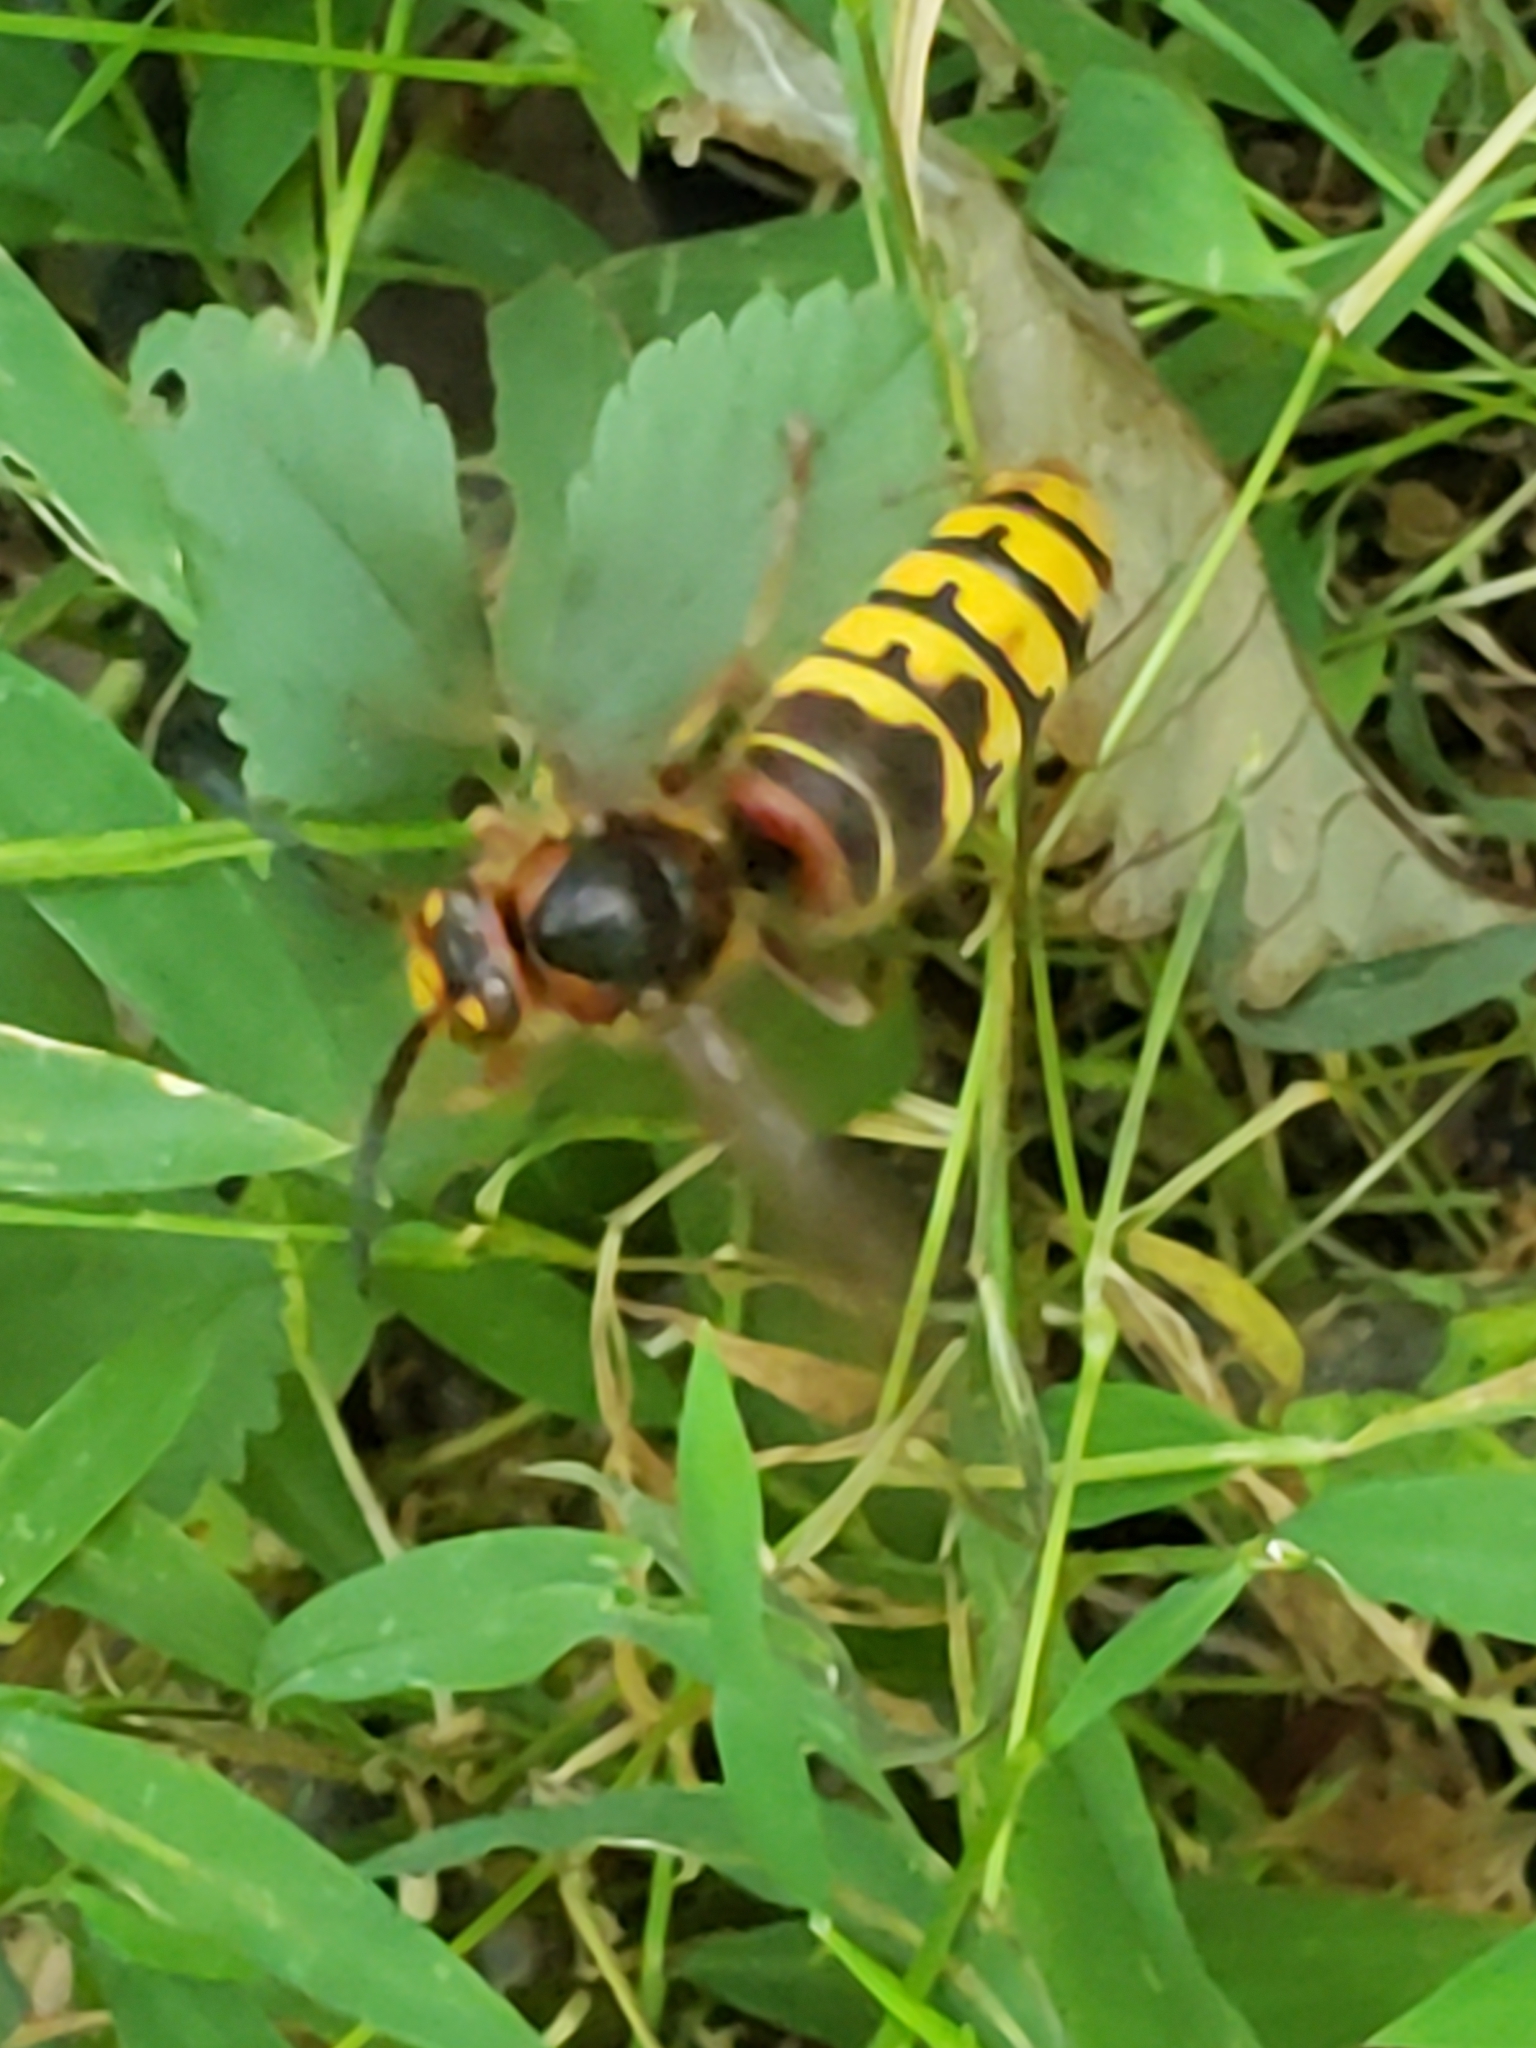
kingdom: Animalia
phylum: Arthropoda
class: Insecta
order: Hymenoptera
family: Vespidae
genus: Vespa
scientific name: Vespa crabro
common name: Hornet
